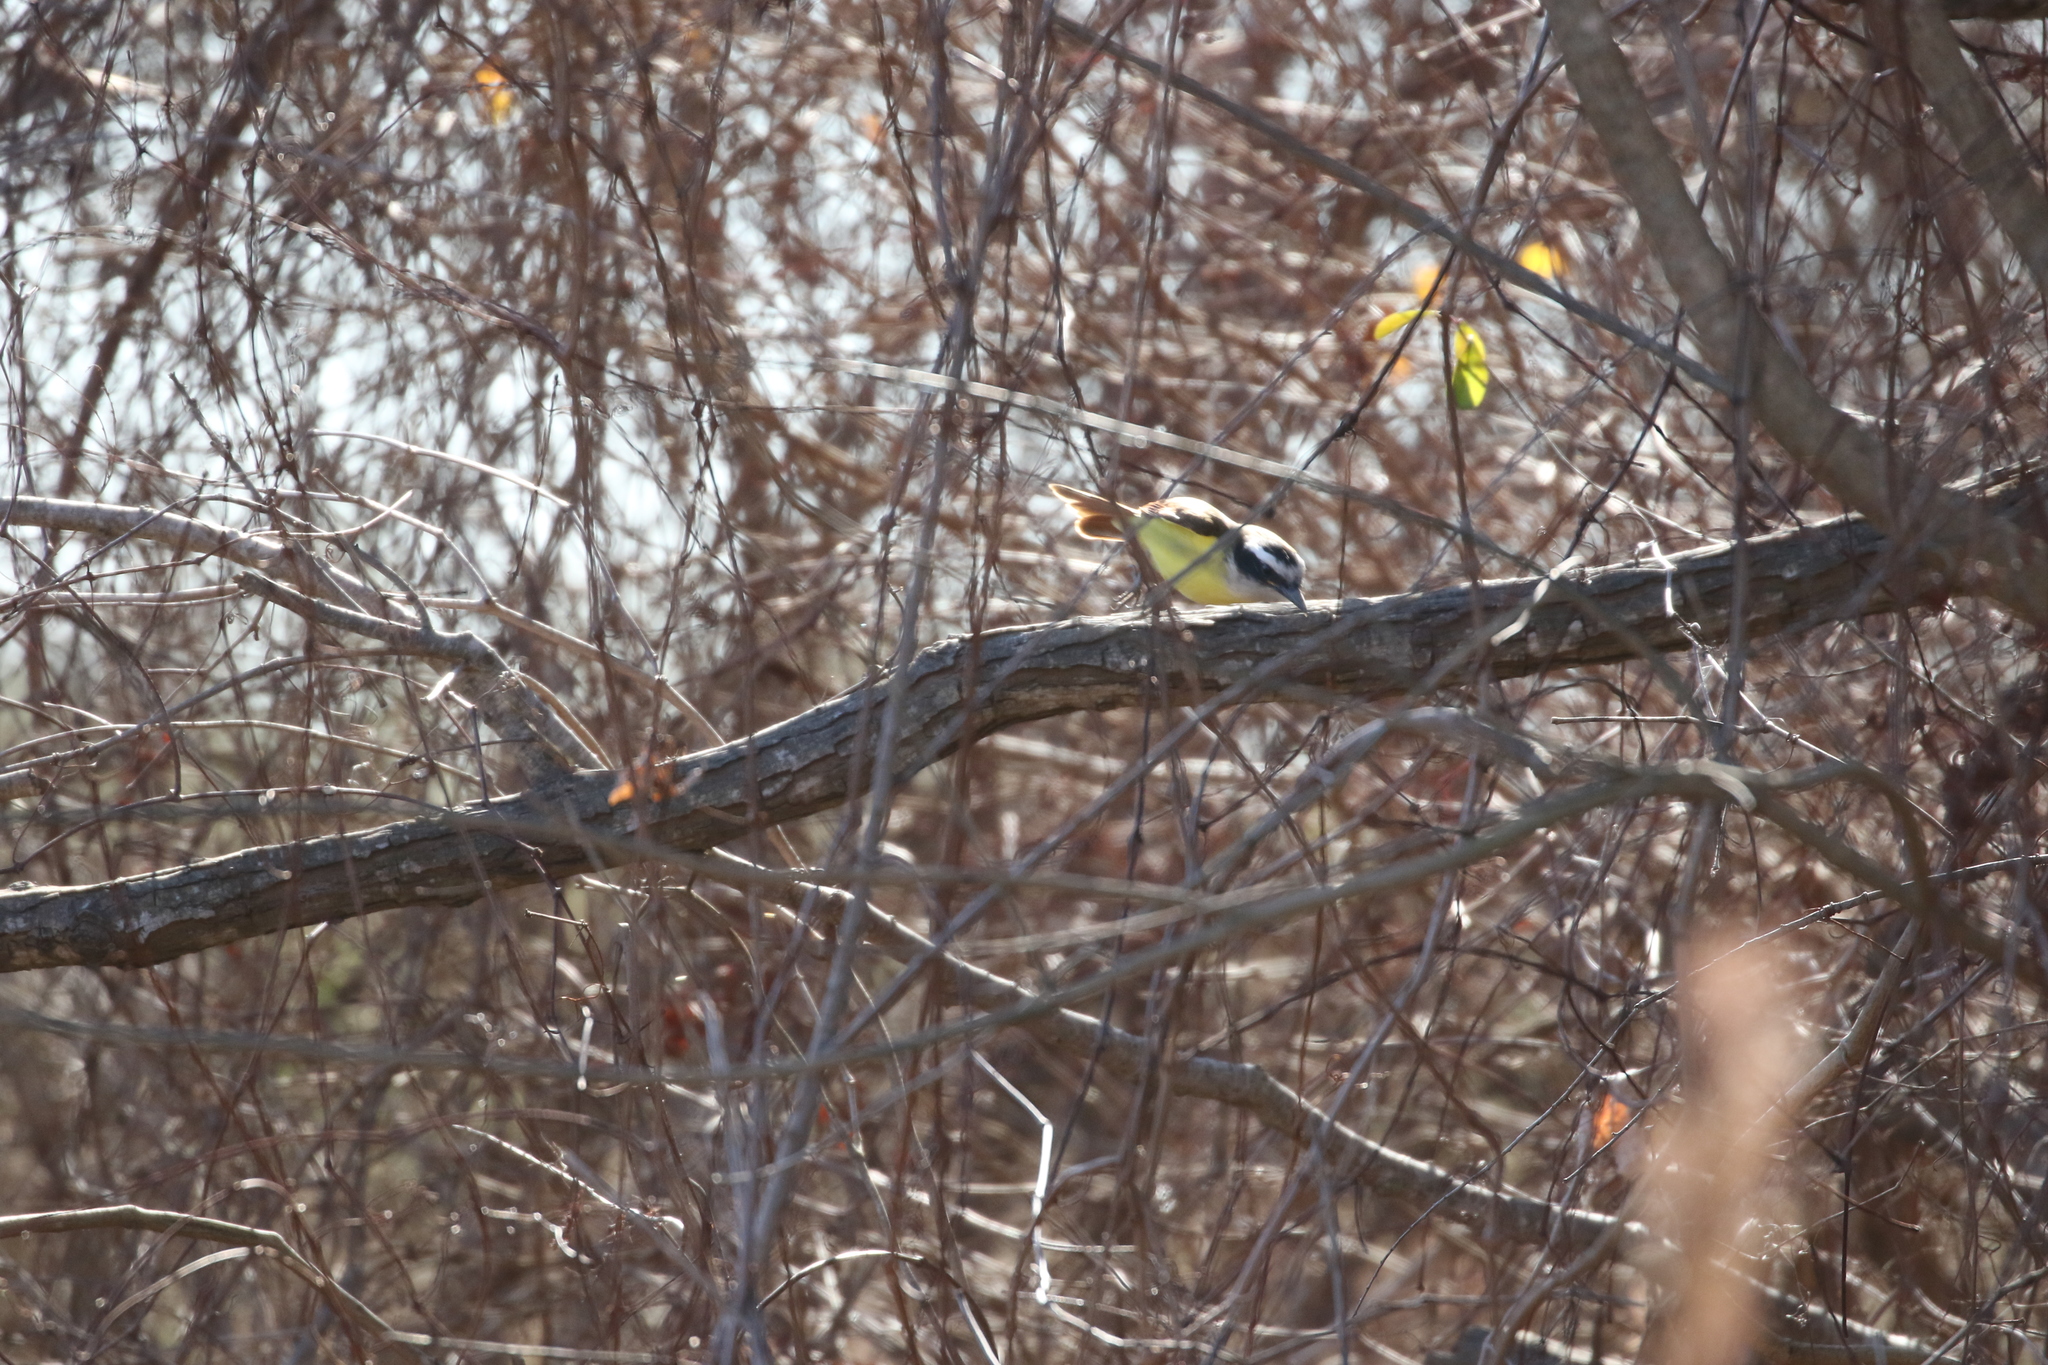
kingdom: Animalia
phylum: Chordata
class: Aves
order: Passeriformes
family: Tyrannidae
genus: Pitangus
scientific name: Pitangus sulphuratus
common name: Great kiskadee
